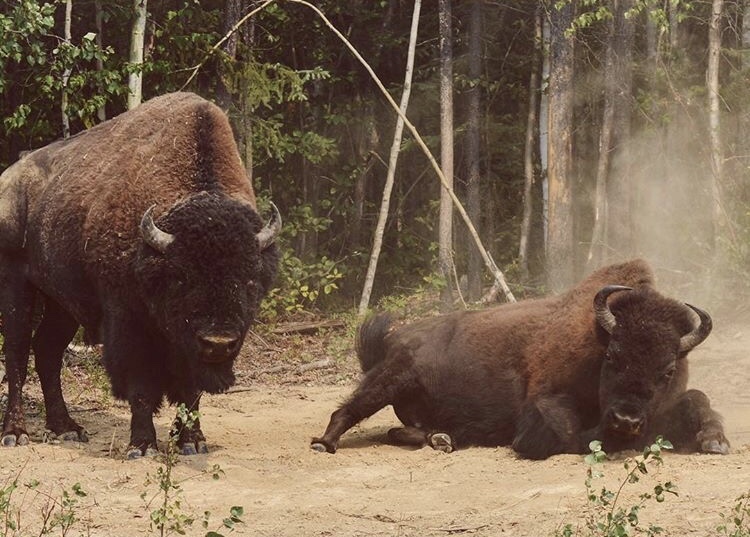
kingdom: Animalia
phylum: Chordata
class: Mammalia
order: Artiodactyla
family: Bovidae
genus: Bison
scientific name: Bison bison
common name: American bison
